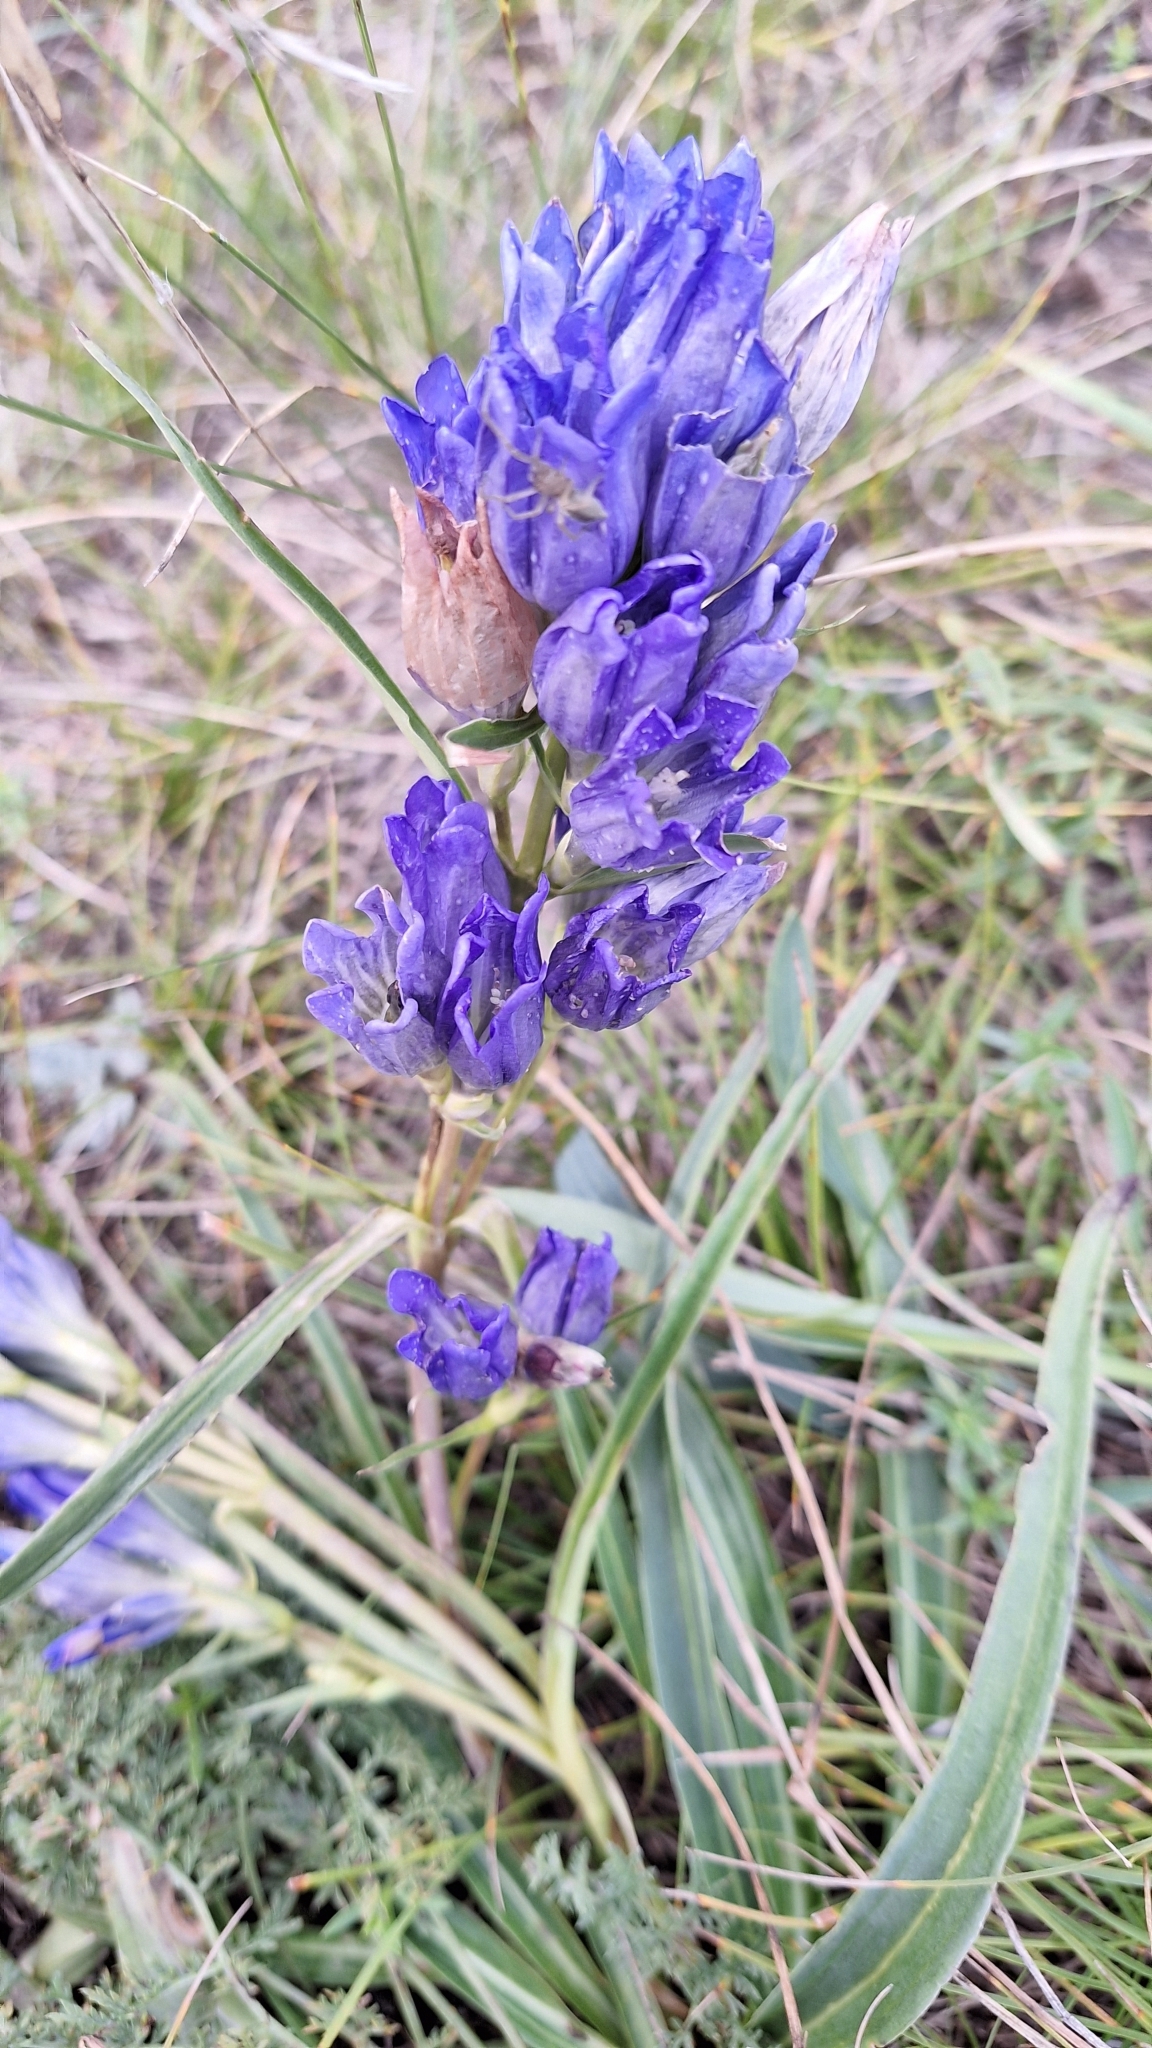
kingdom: Plantae
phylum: Tracheophyta
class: Magnoliopsida
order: Gentianales
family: Gentianaceae
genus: Gentiana
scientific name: Gentiana decumbens
